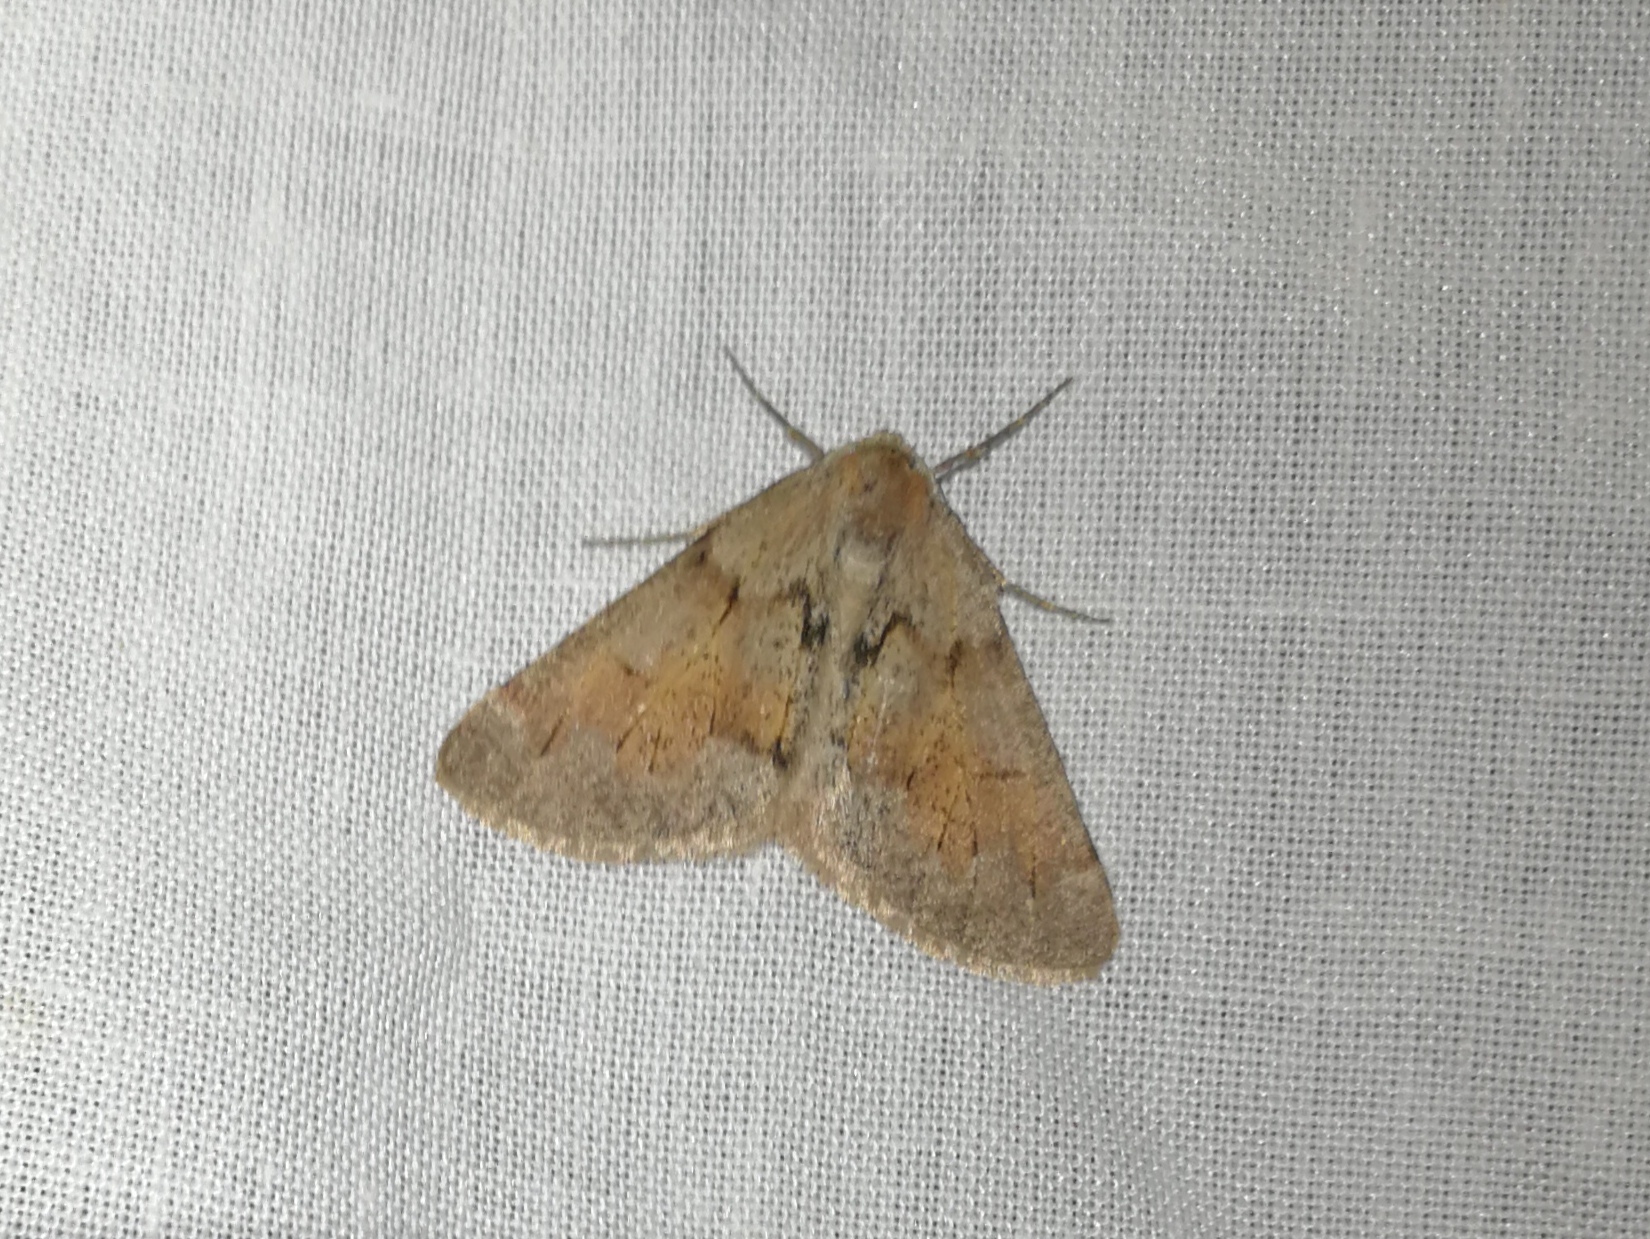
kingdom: Animalia
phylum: Arthropoda
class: Insecta
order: Lepidoptera
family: Geometridae
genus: Adalbertia
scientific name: Adalbertia castiliaria
